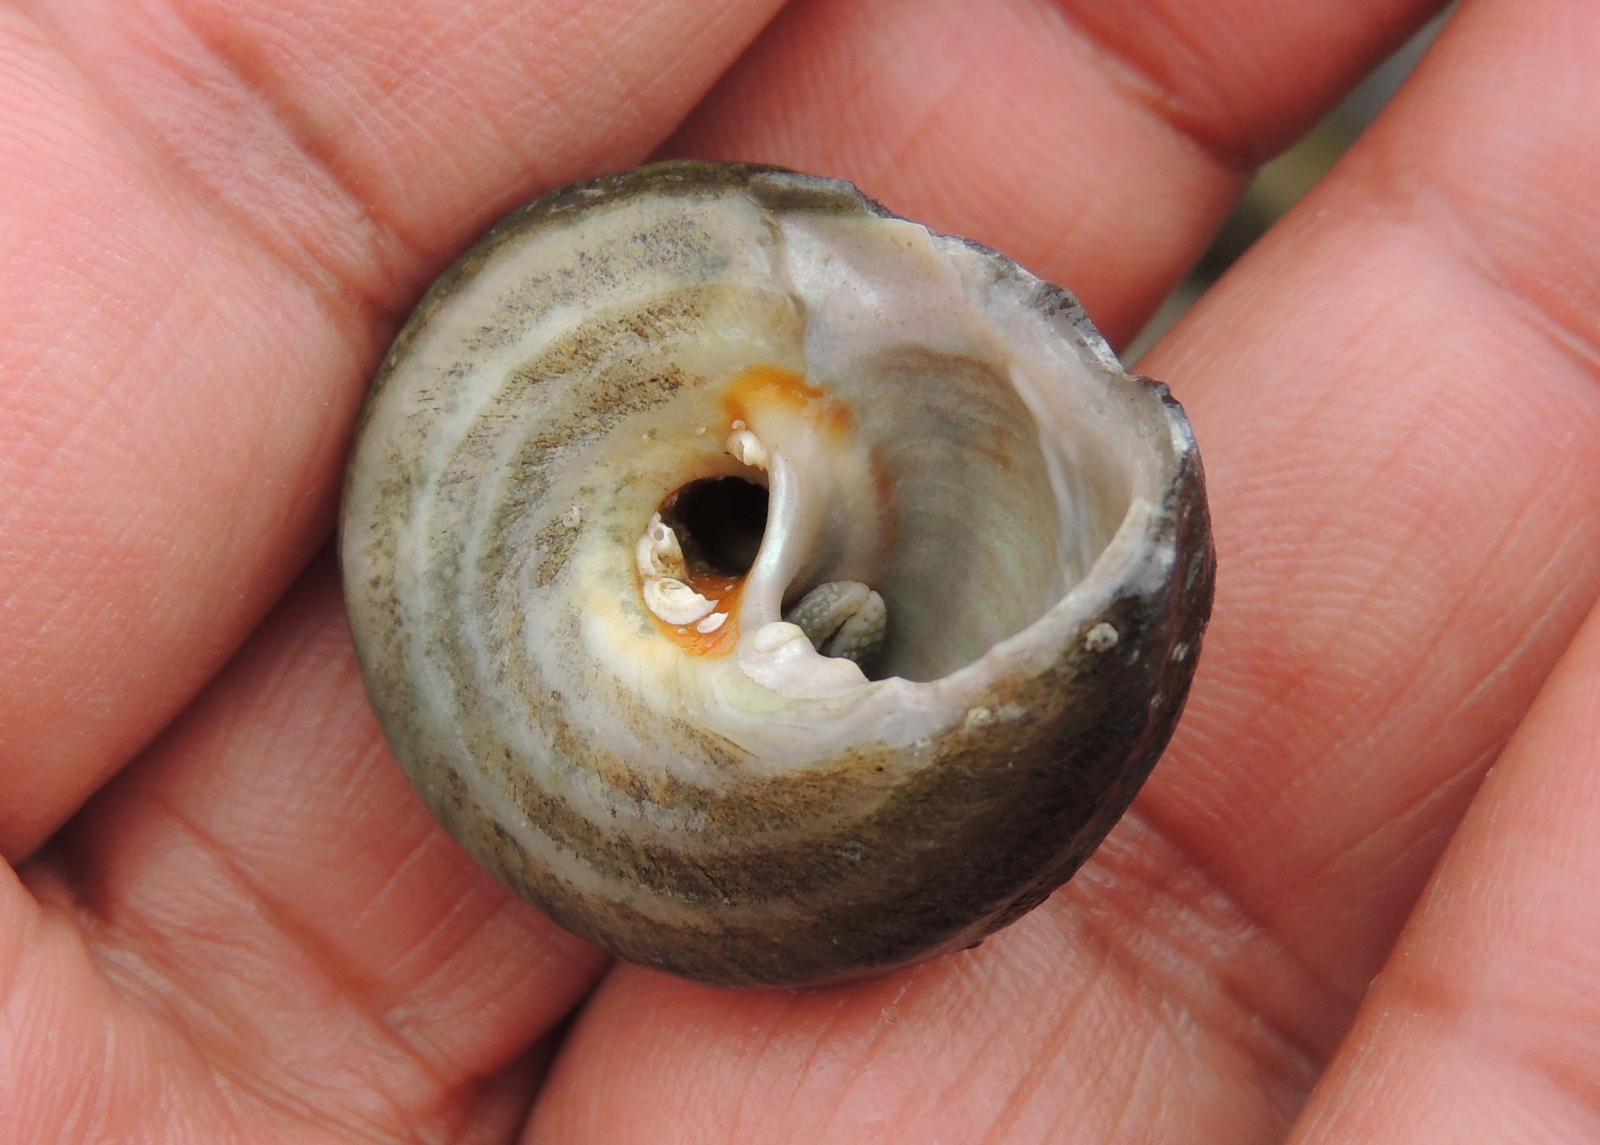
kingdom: Animalia
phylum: Mollusca
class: Gastropoda
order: Trochida
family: Tegulidae
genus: Tegula
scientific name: Tegula aureotincta
